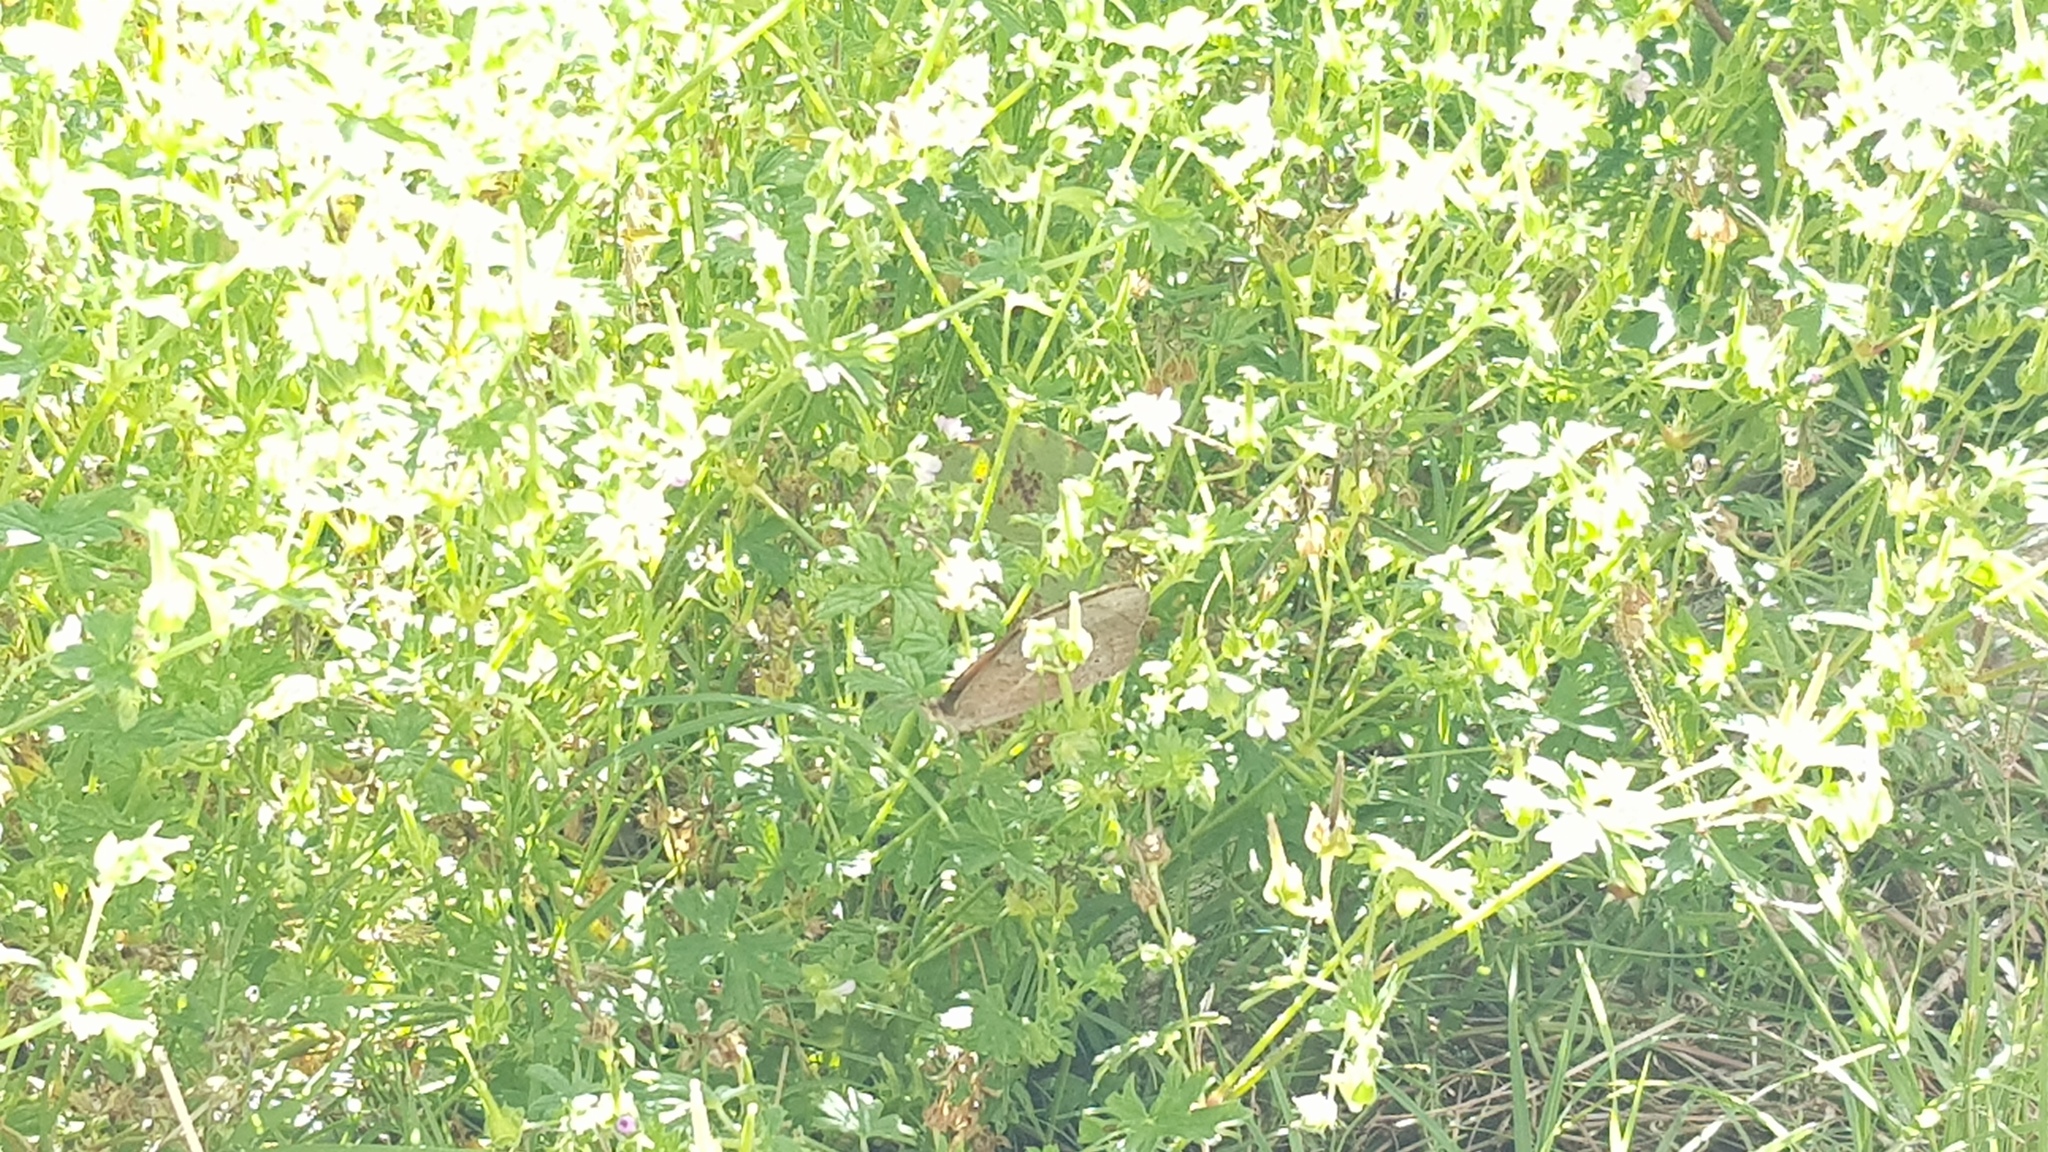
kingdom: Animalia
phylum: Arthropoda
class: Insecta
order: Lepidoptera
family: Nymphalidae
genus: Heteronympha
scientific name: Heteronympha merope
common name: Common brown
